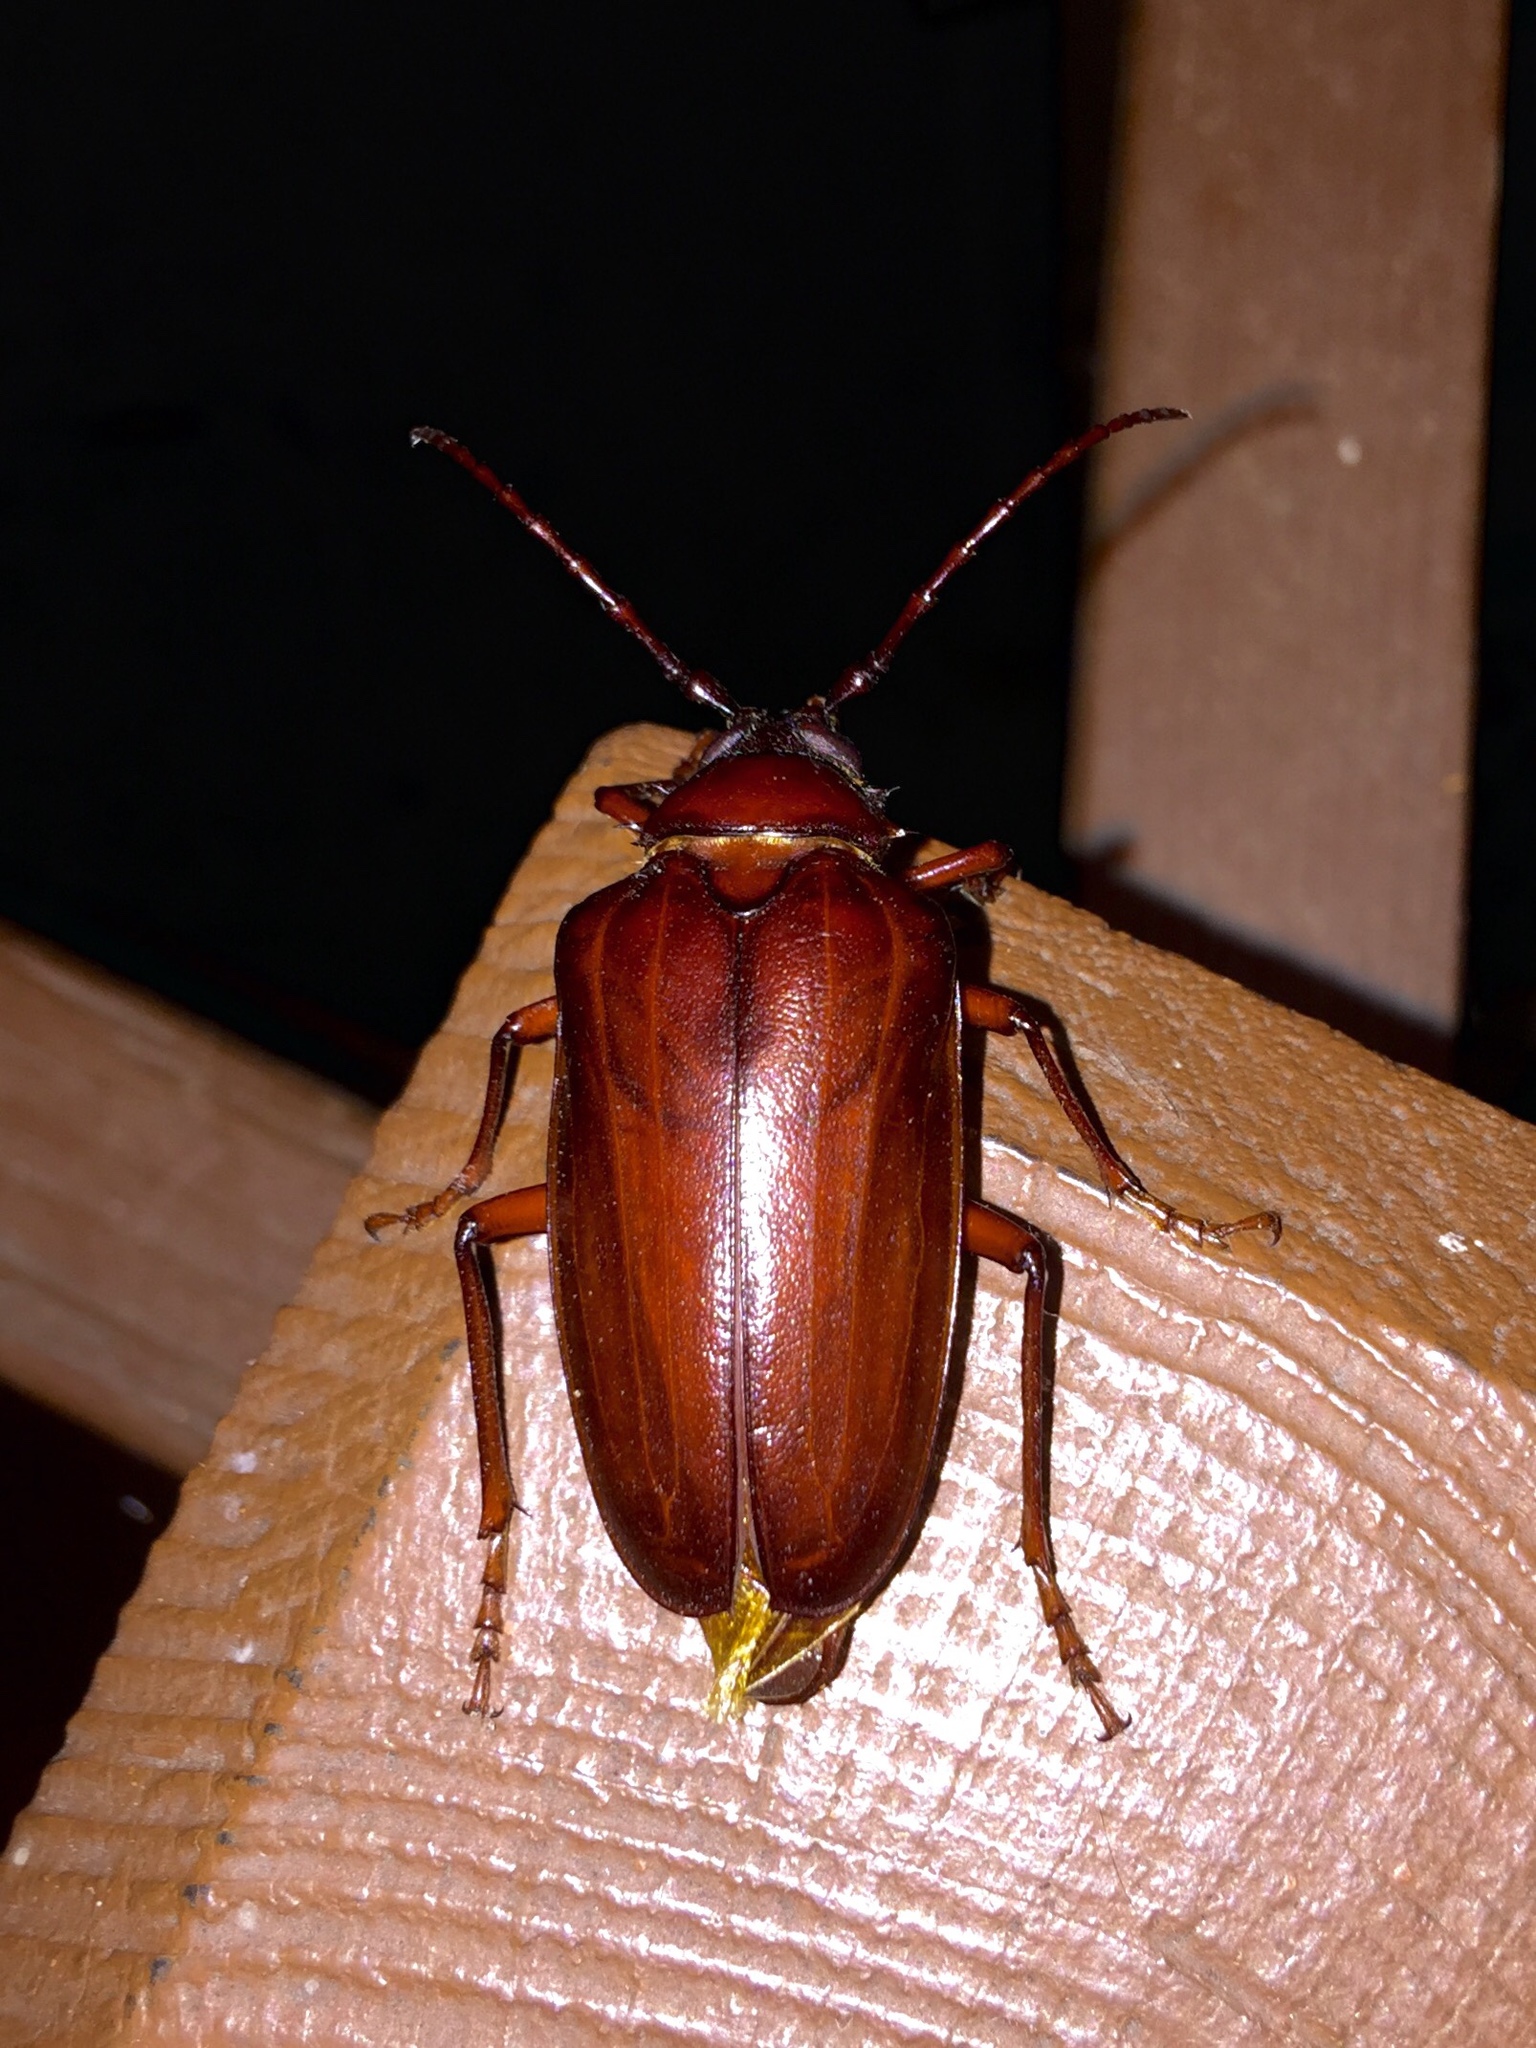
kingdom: Animalia
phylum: Arthropoda
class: Insecta
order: Coleoptera
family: Cerambycidae
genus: Prionus
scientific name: Prionus californicus
